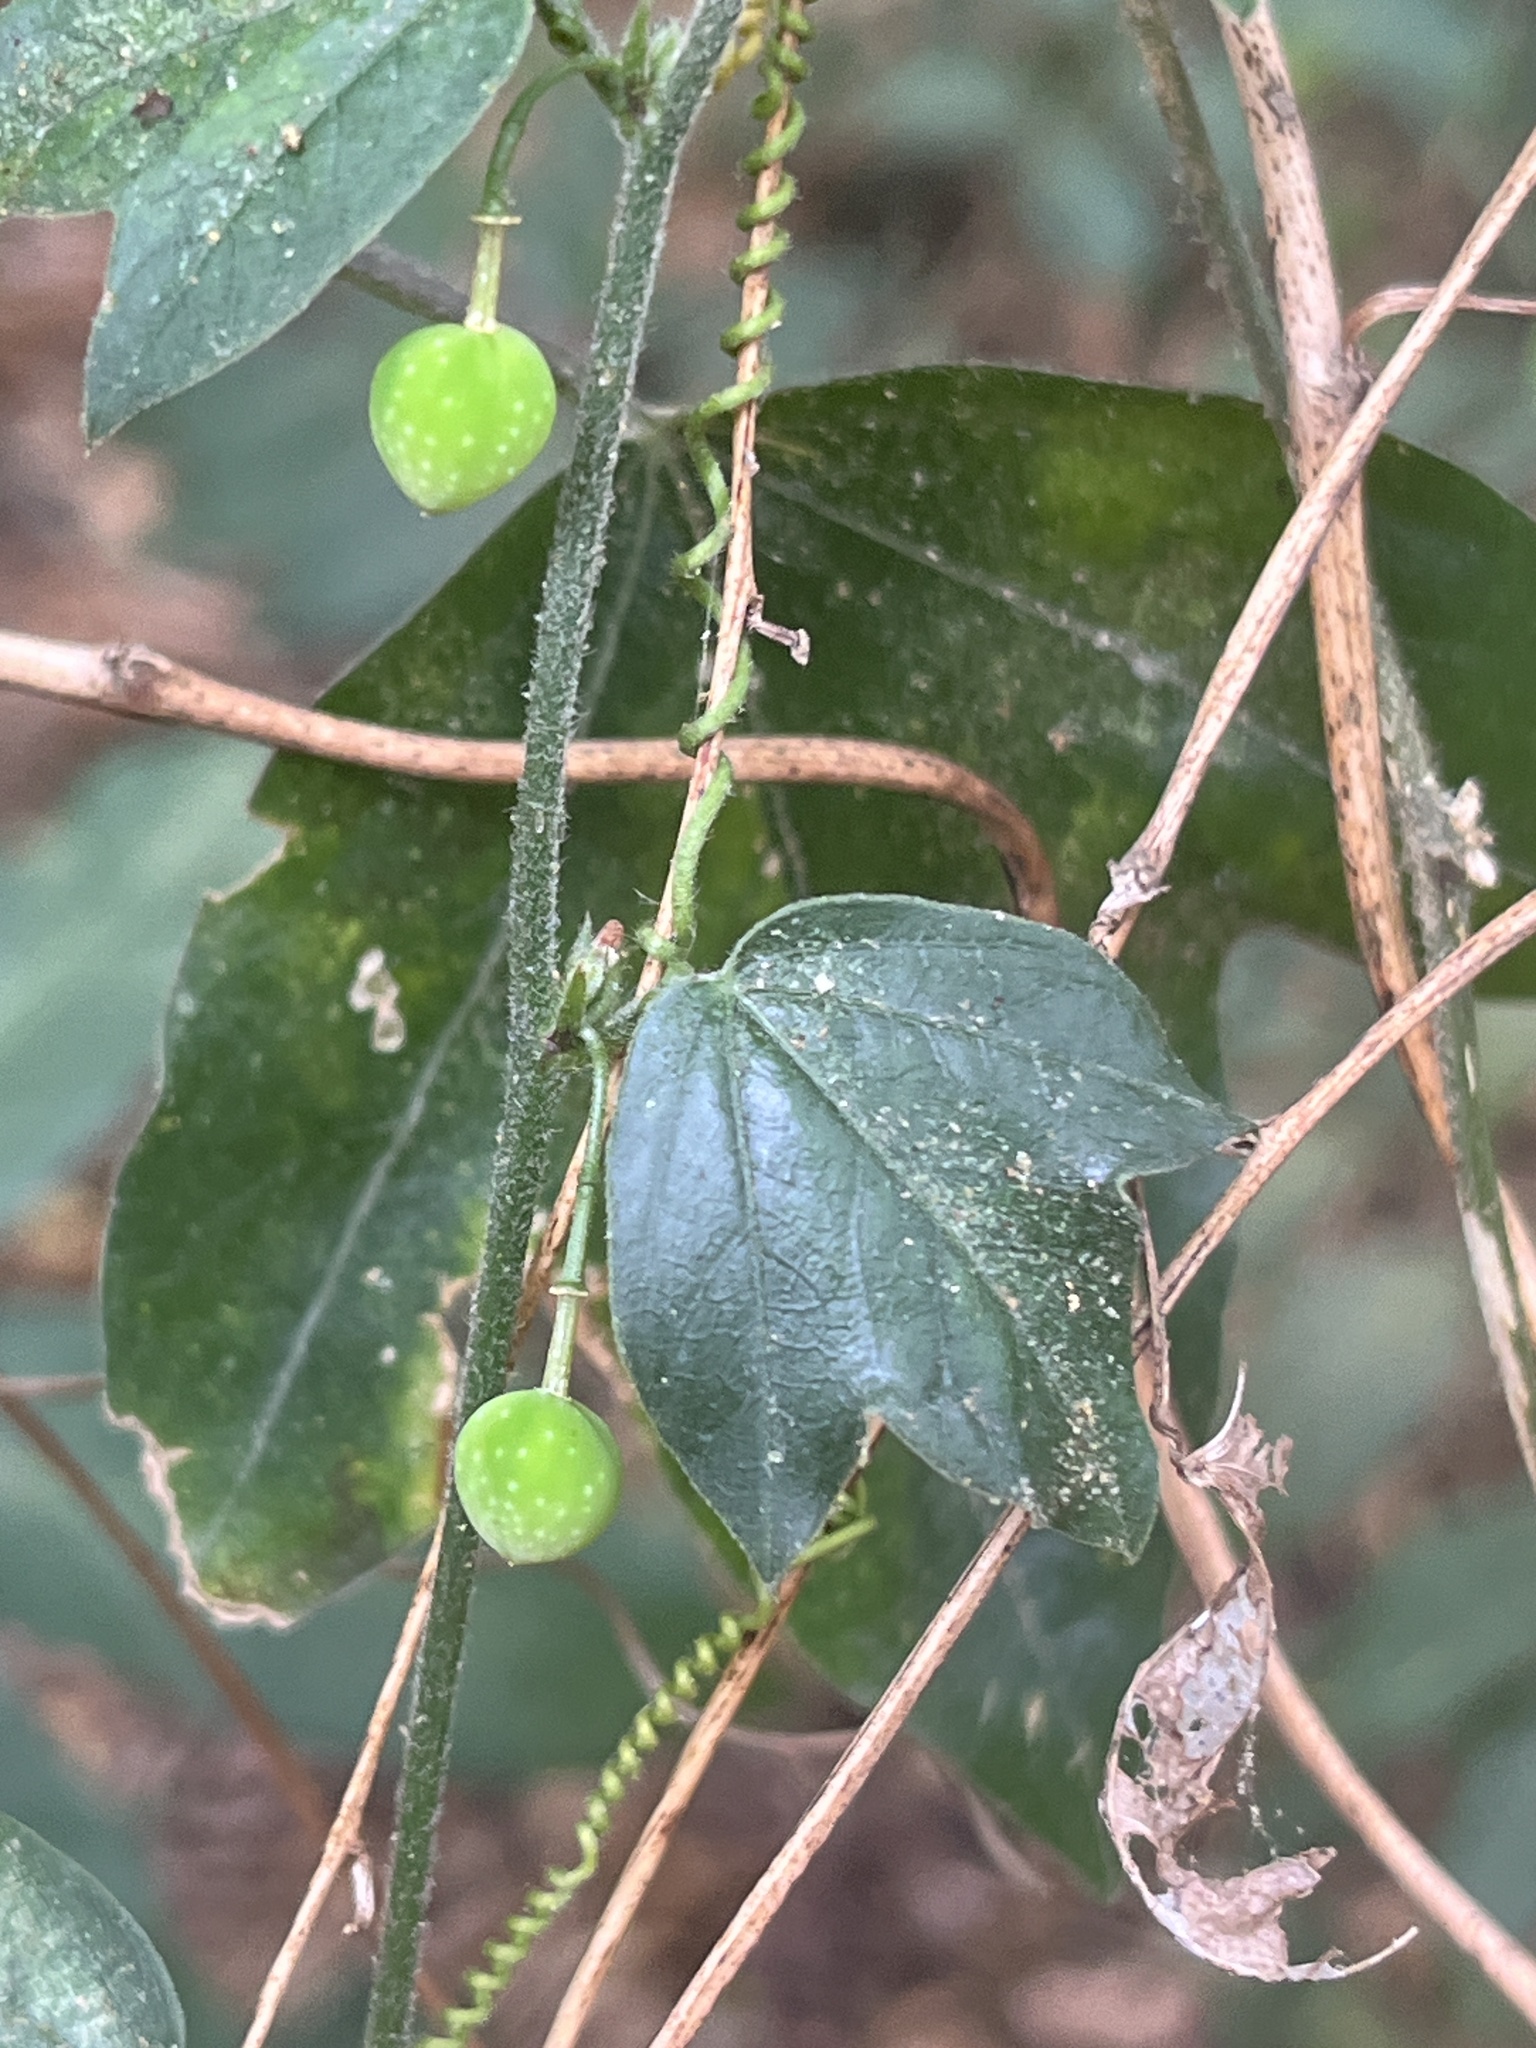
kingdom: Plantae
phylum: Tracheophyta
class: Magnoliopsida
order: Malpighiales
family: Passifloraceae
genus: Passiflora
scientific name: Passiflora suberosa
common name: Wild passionfruit
